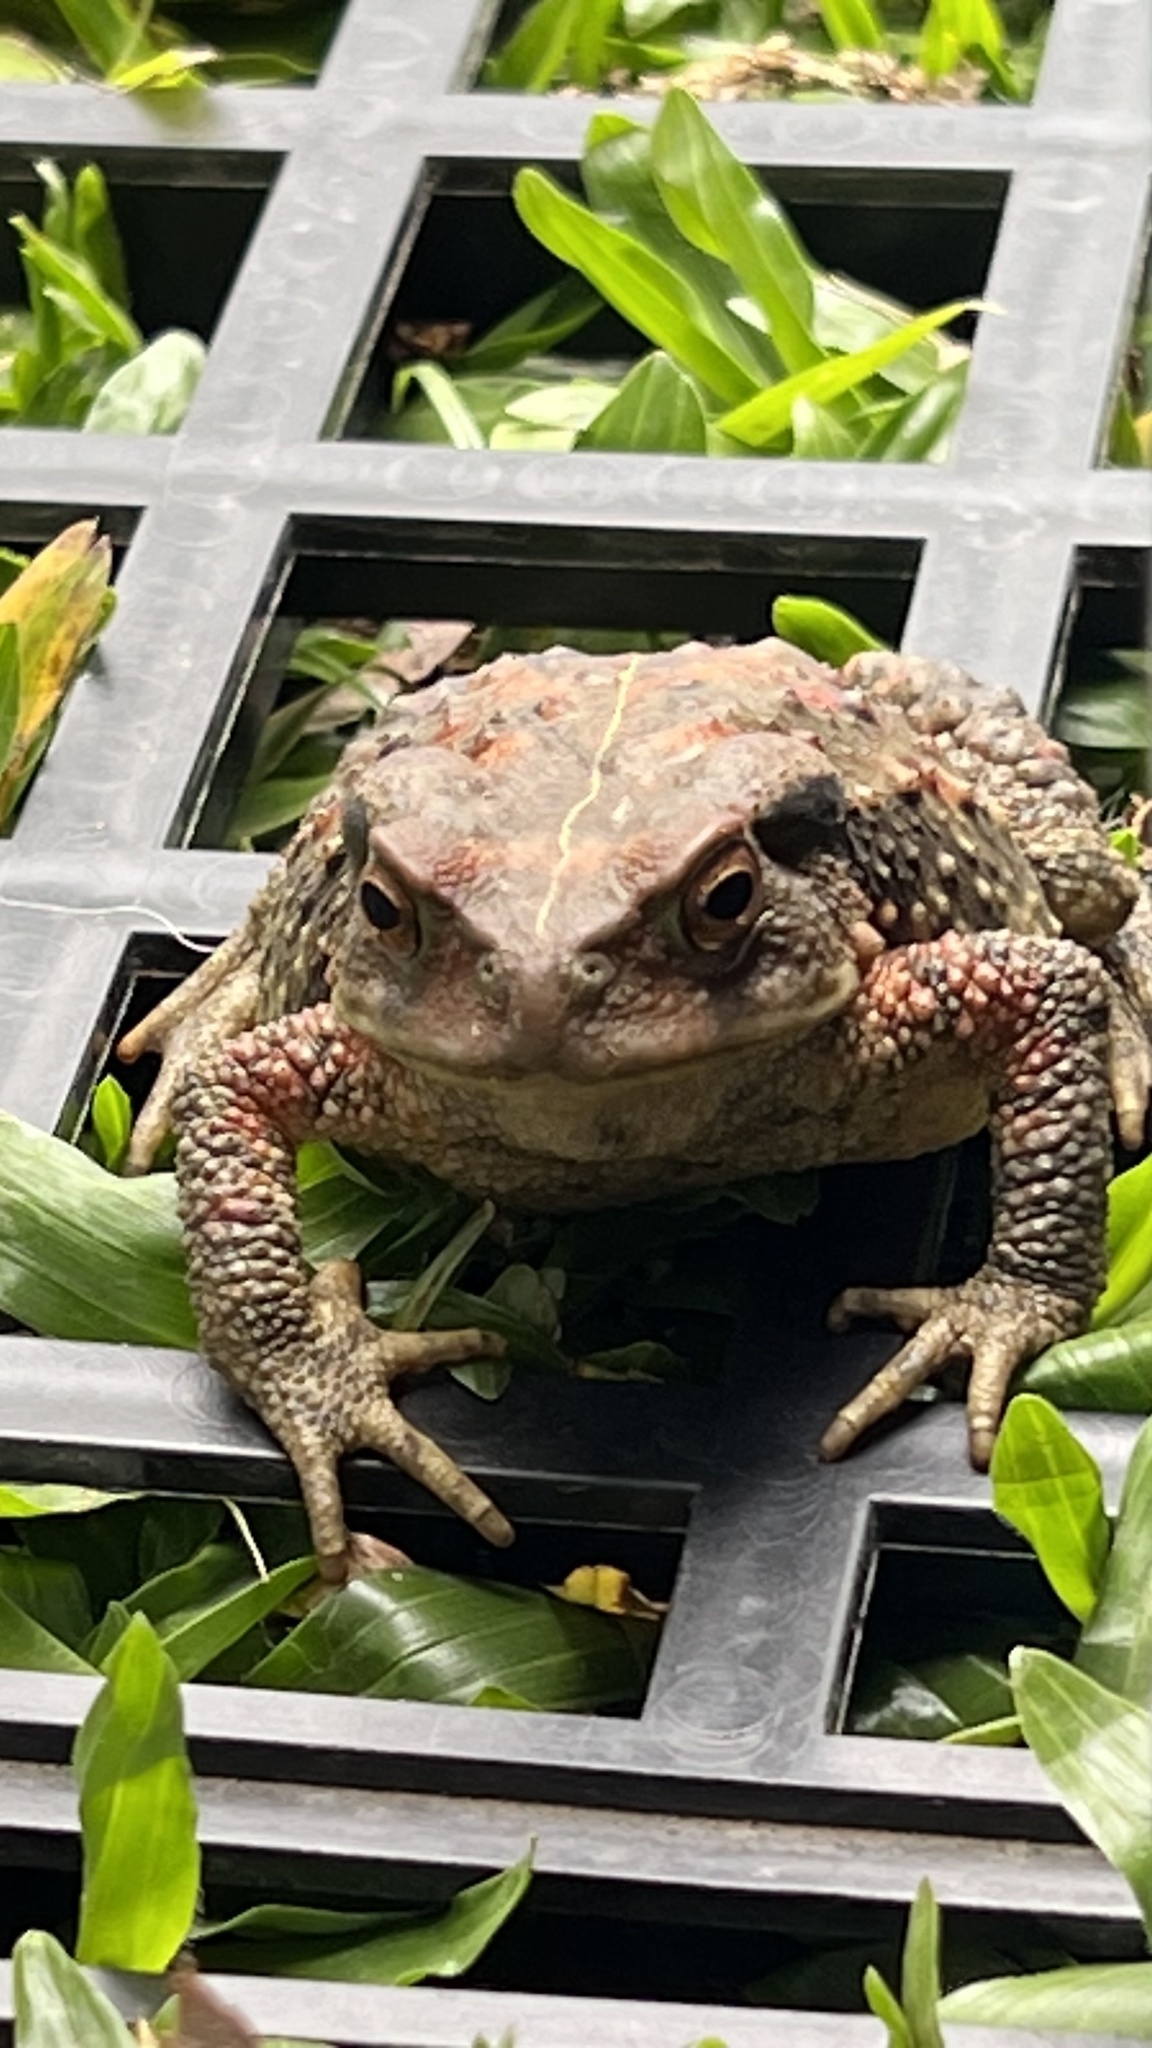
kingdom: Animalia
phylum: Chordata
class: Amphibia
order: Anura
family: Bufonidae
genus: Bufo
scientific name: Bufo bankorensis
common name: Bankor toad
